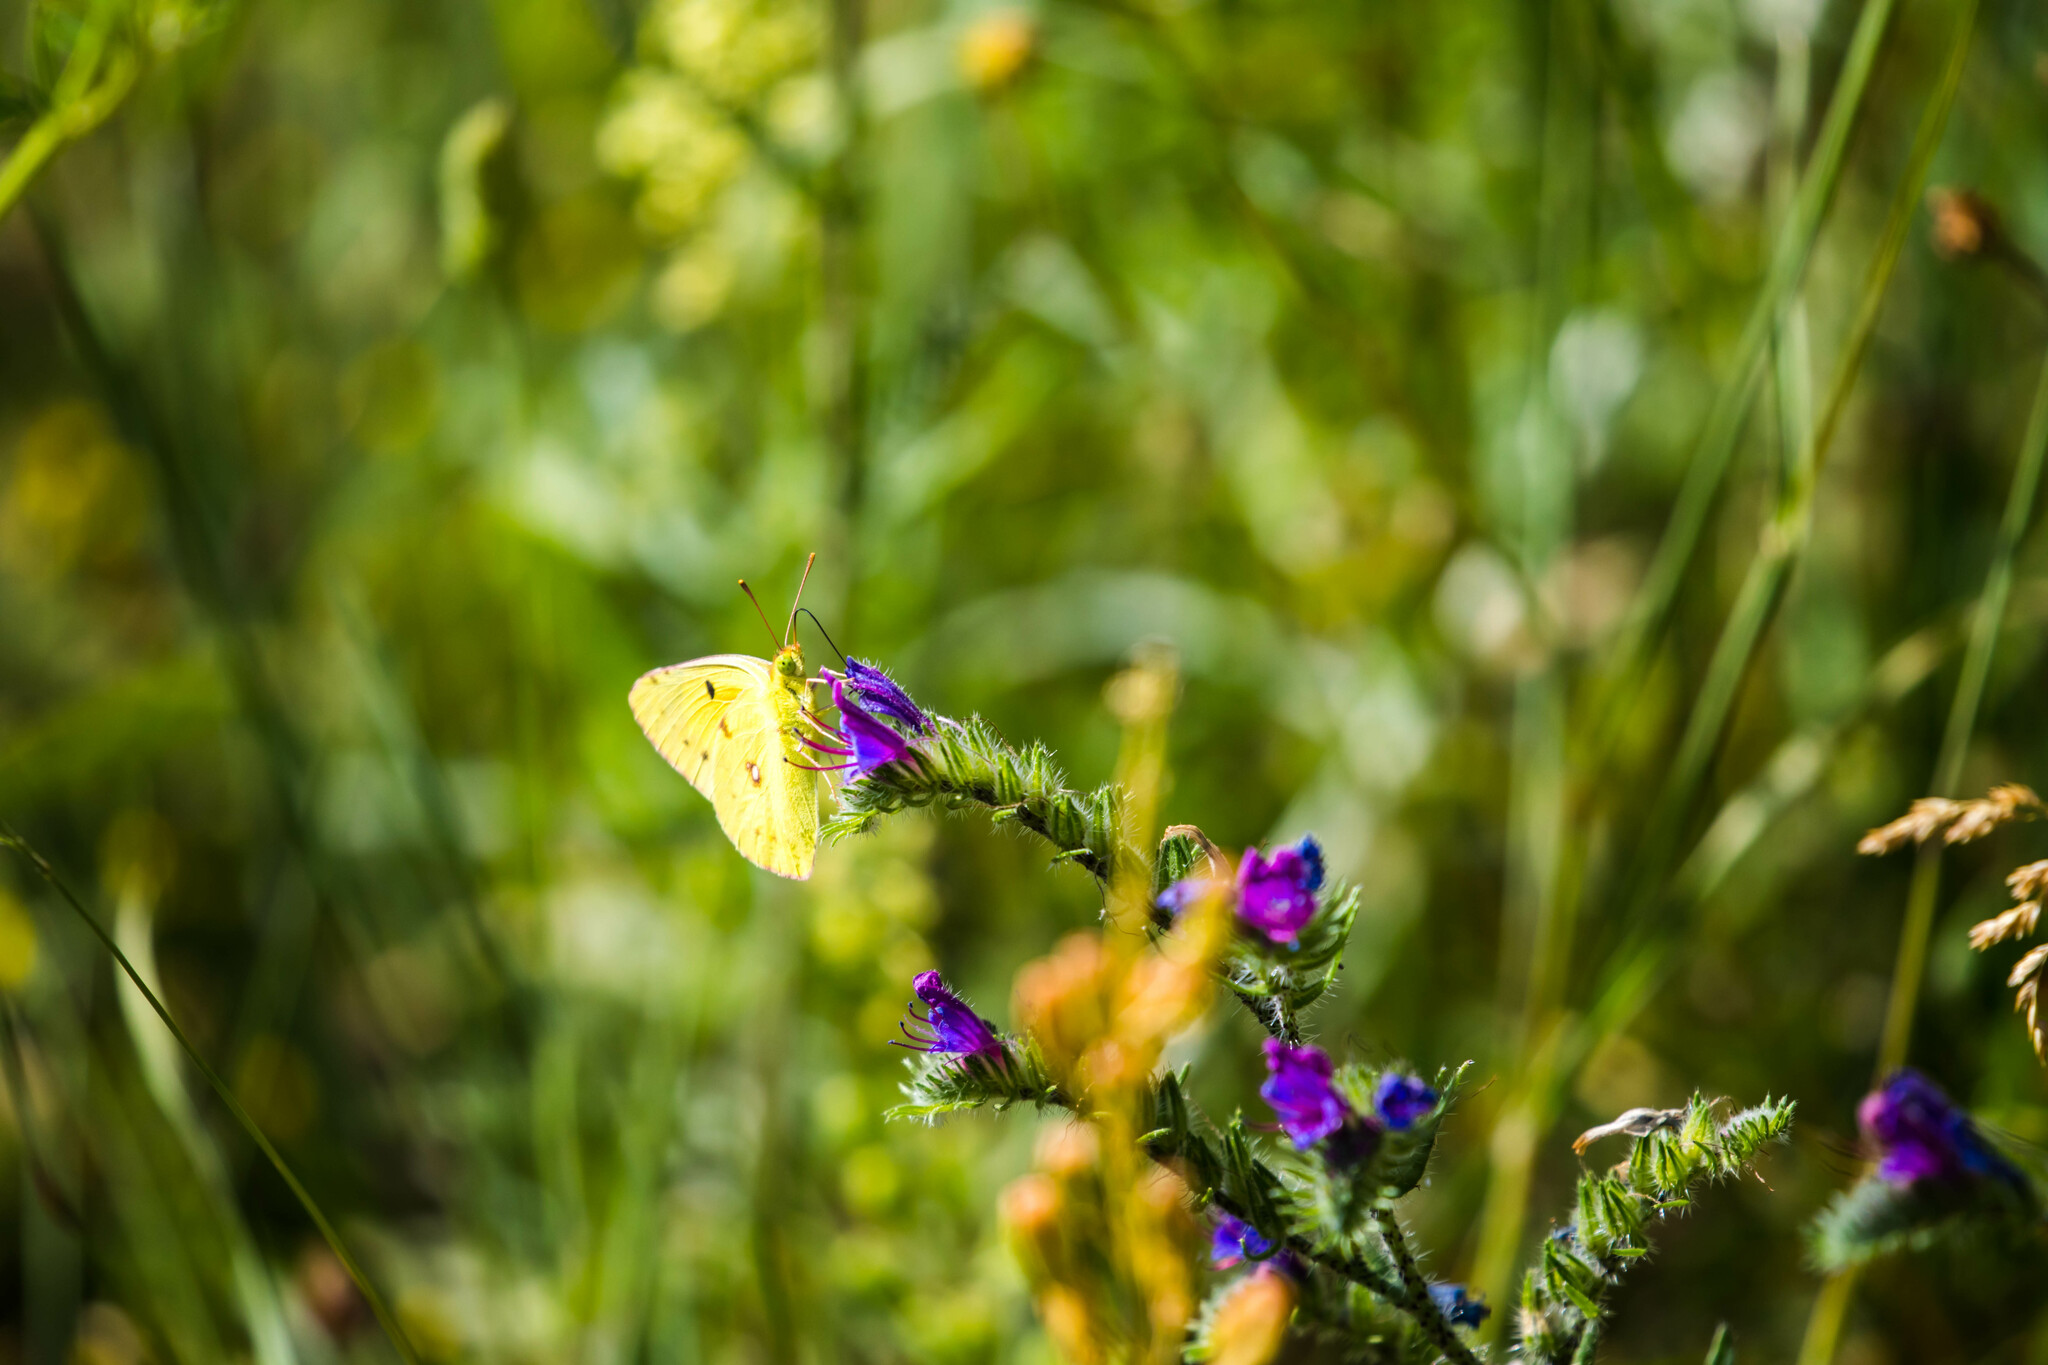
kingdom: Animalia
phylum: Arthropoda
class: Insecta
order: Lepidoptera
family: Pieridae
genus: Colias
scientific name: Colias croceus
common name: Clouded yellow
